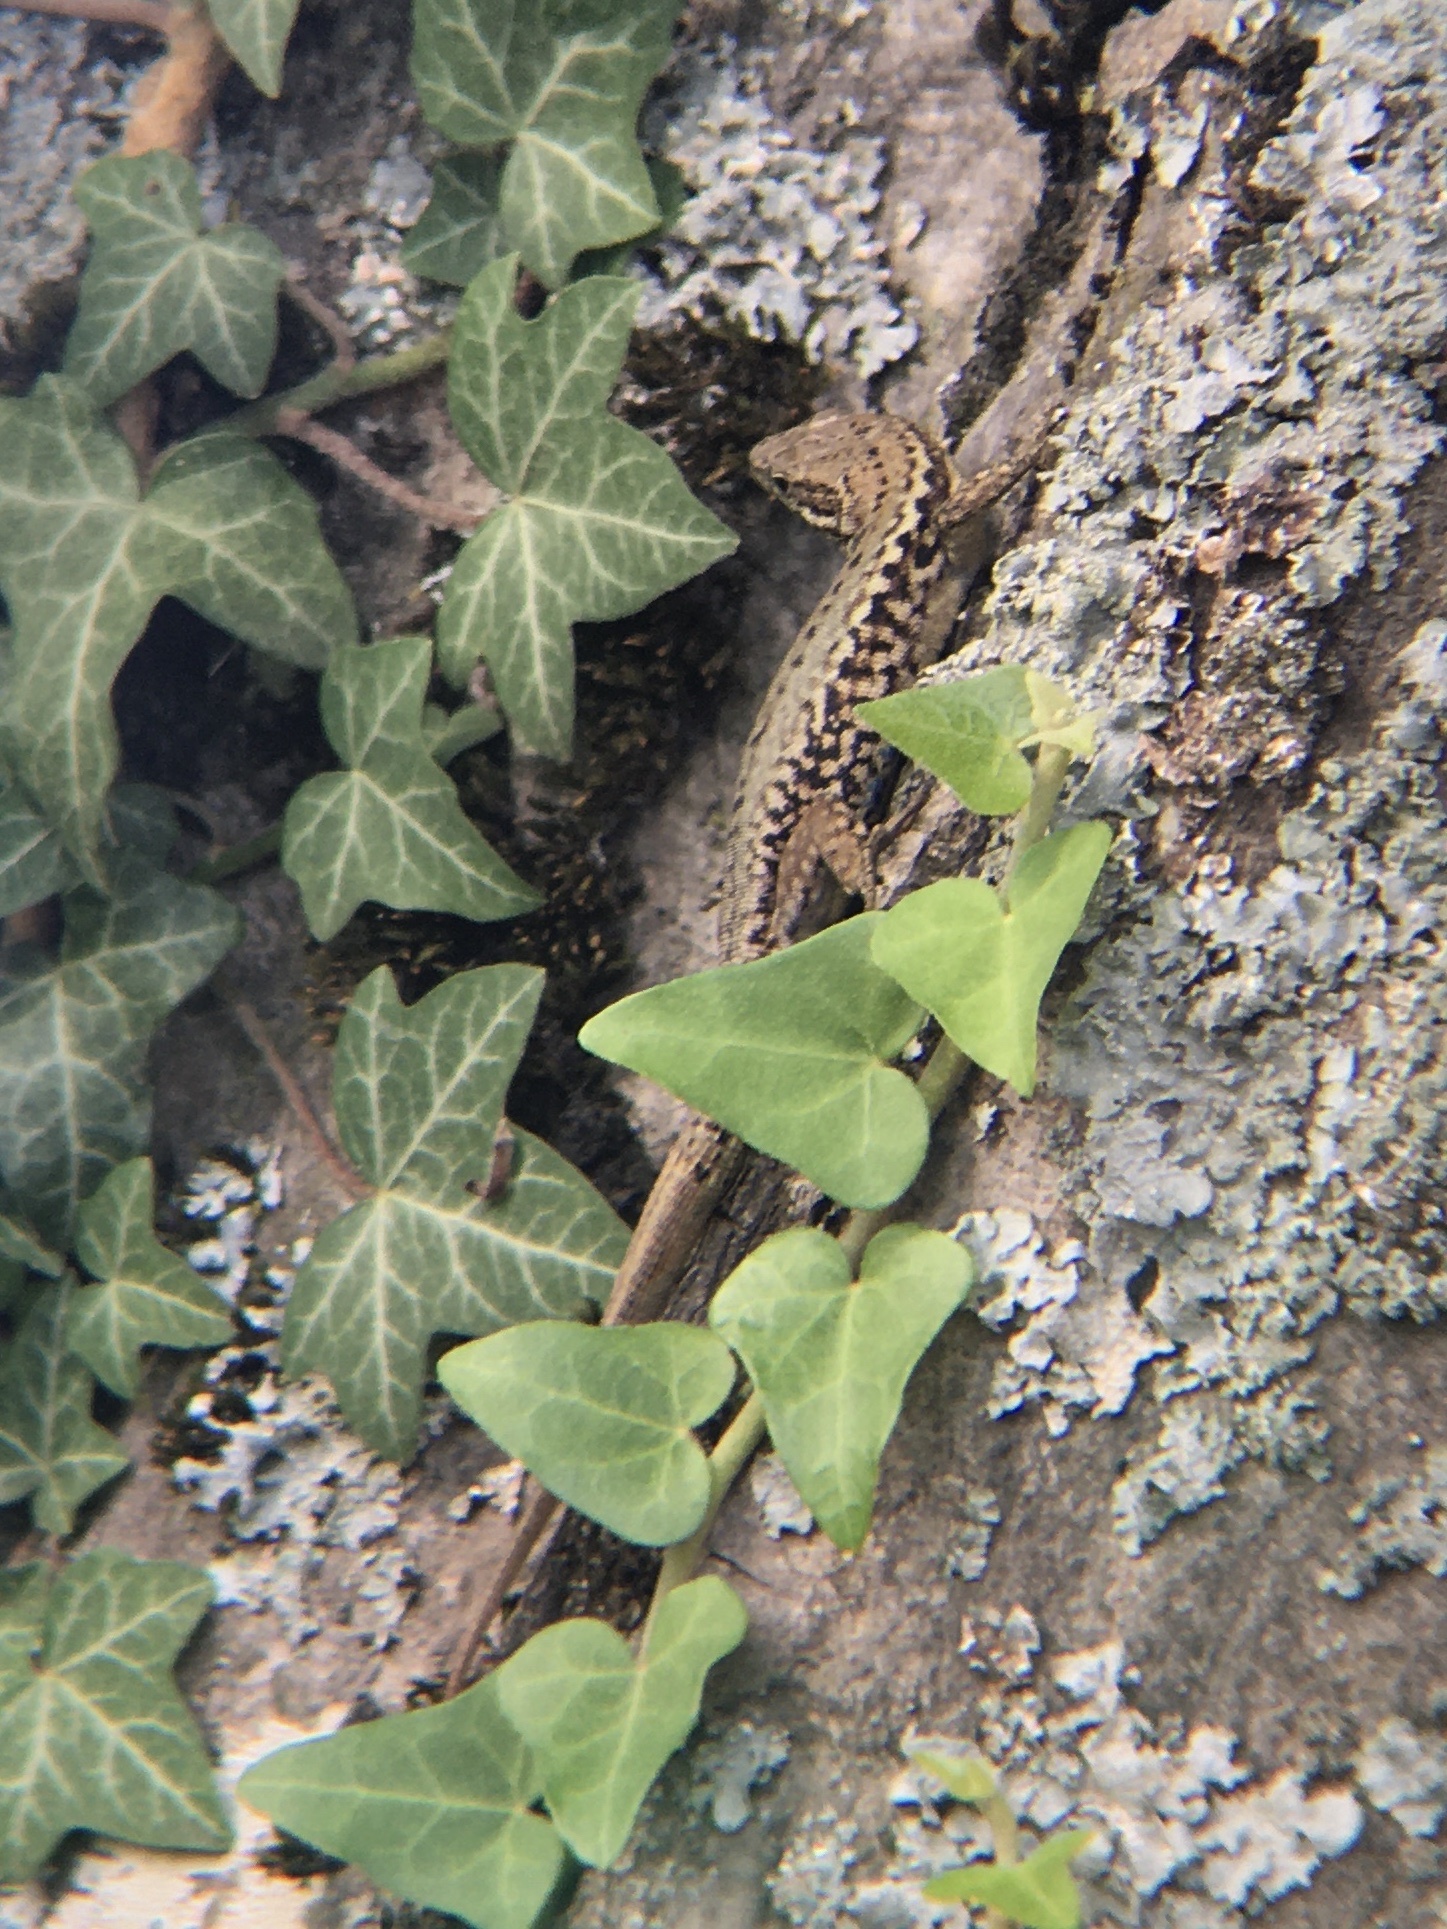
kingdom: Animalia
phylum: Chordata
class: Squamata
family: Lacertidae
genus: Podarcis
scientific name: Podarcis muralis
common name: Common wall lizard
